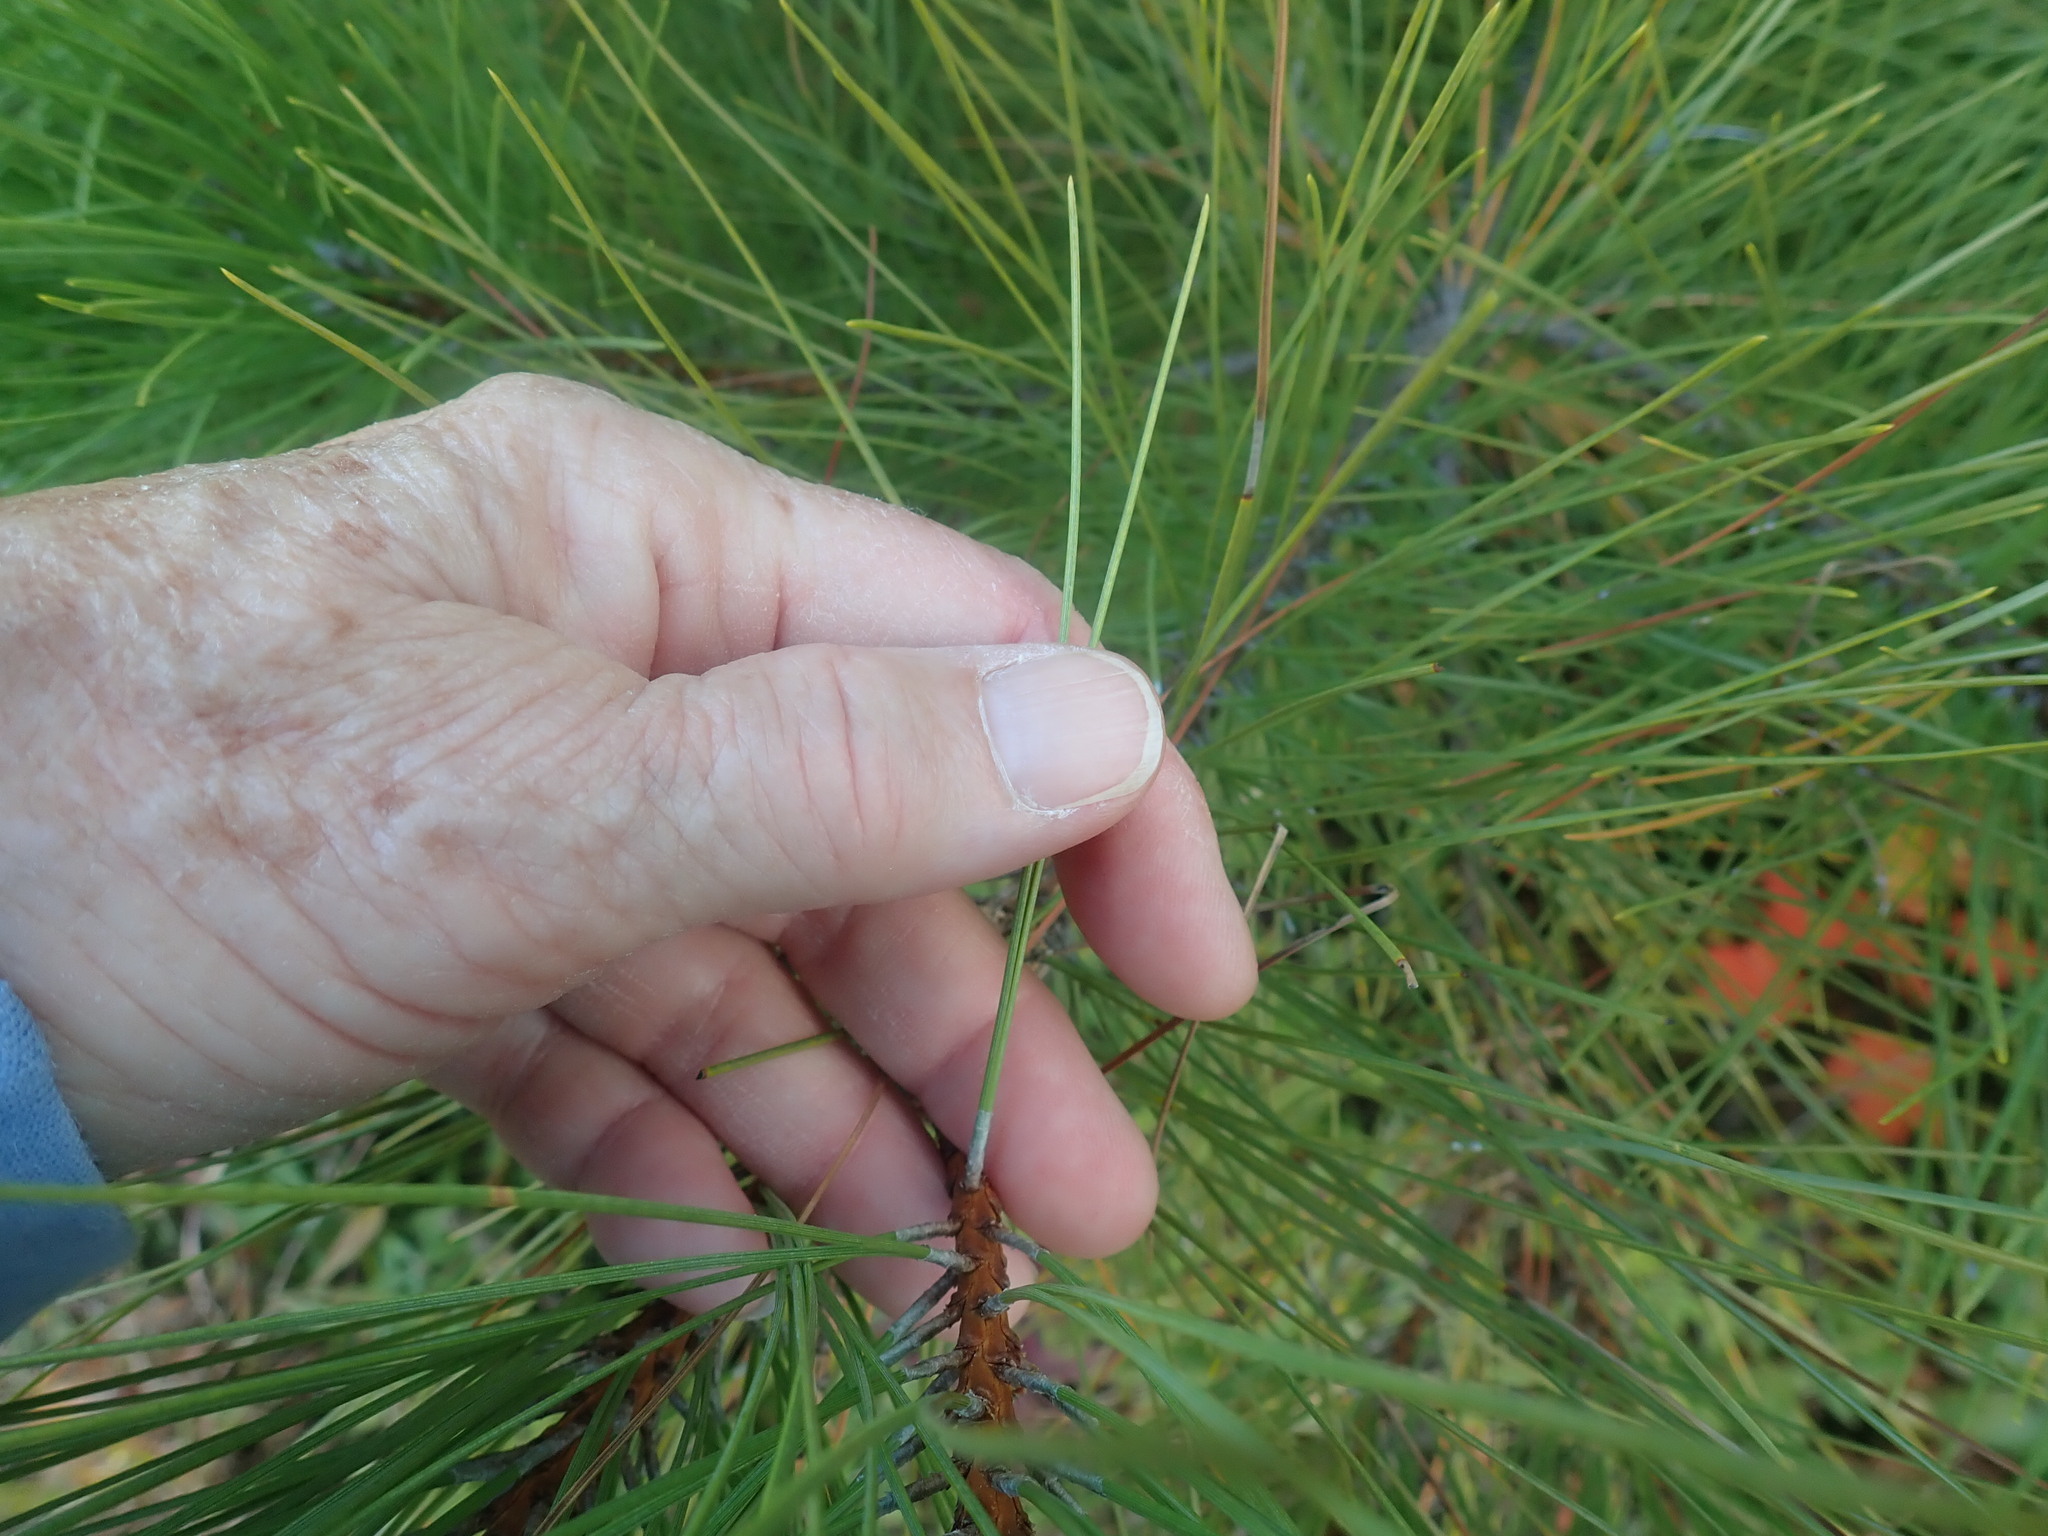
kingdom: Plantae
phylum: Tracheophyta
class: Pinopsida
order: Pinales
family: Pinaceae
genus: Pinus
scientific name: Pinus resinosa
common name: Norway pine
